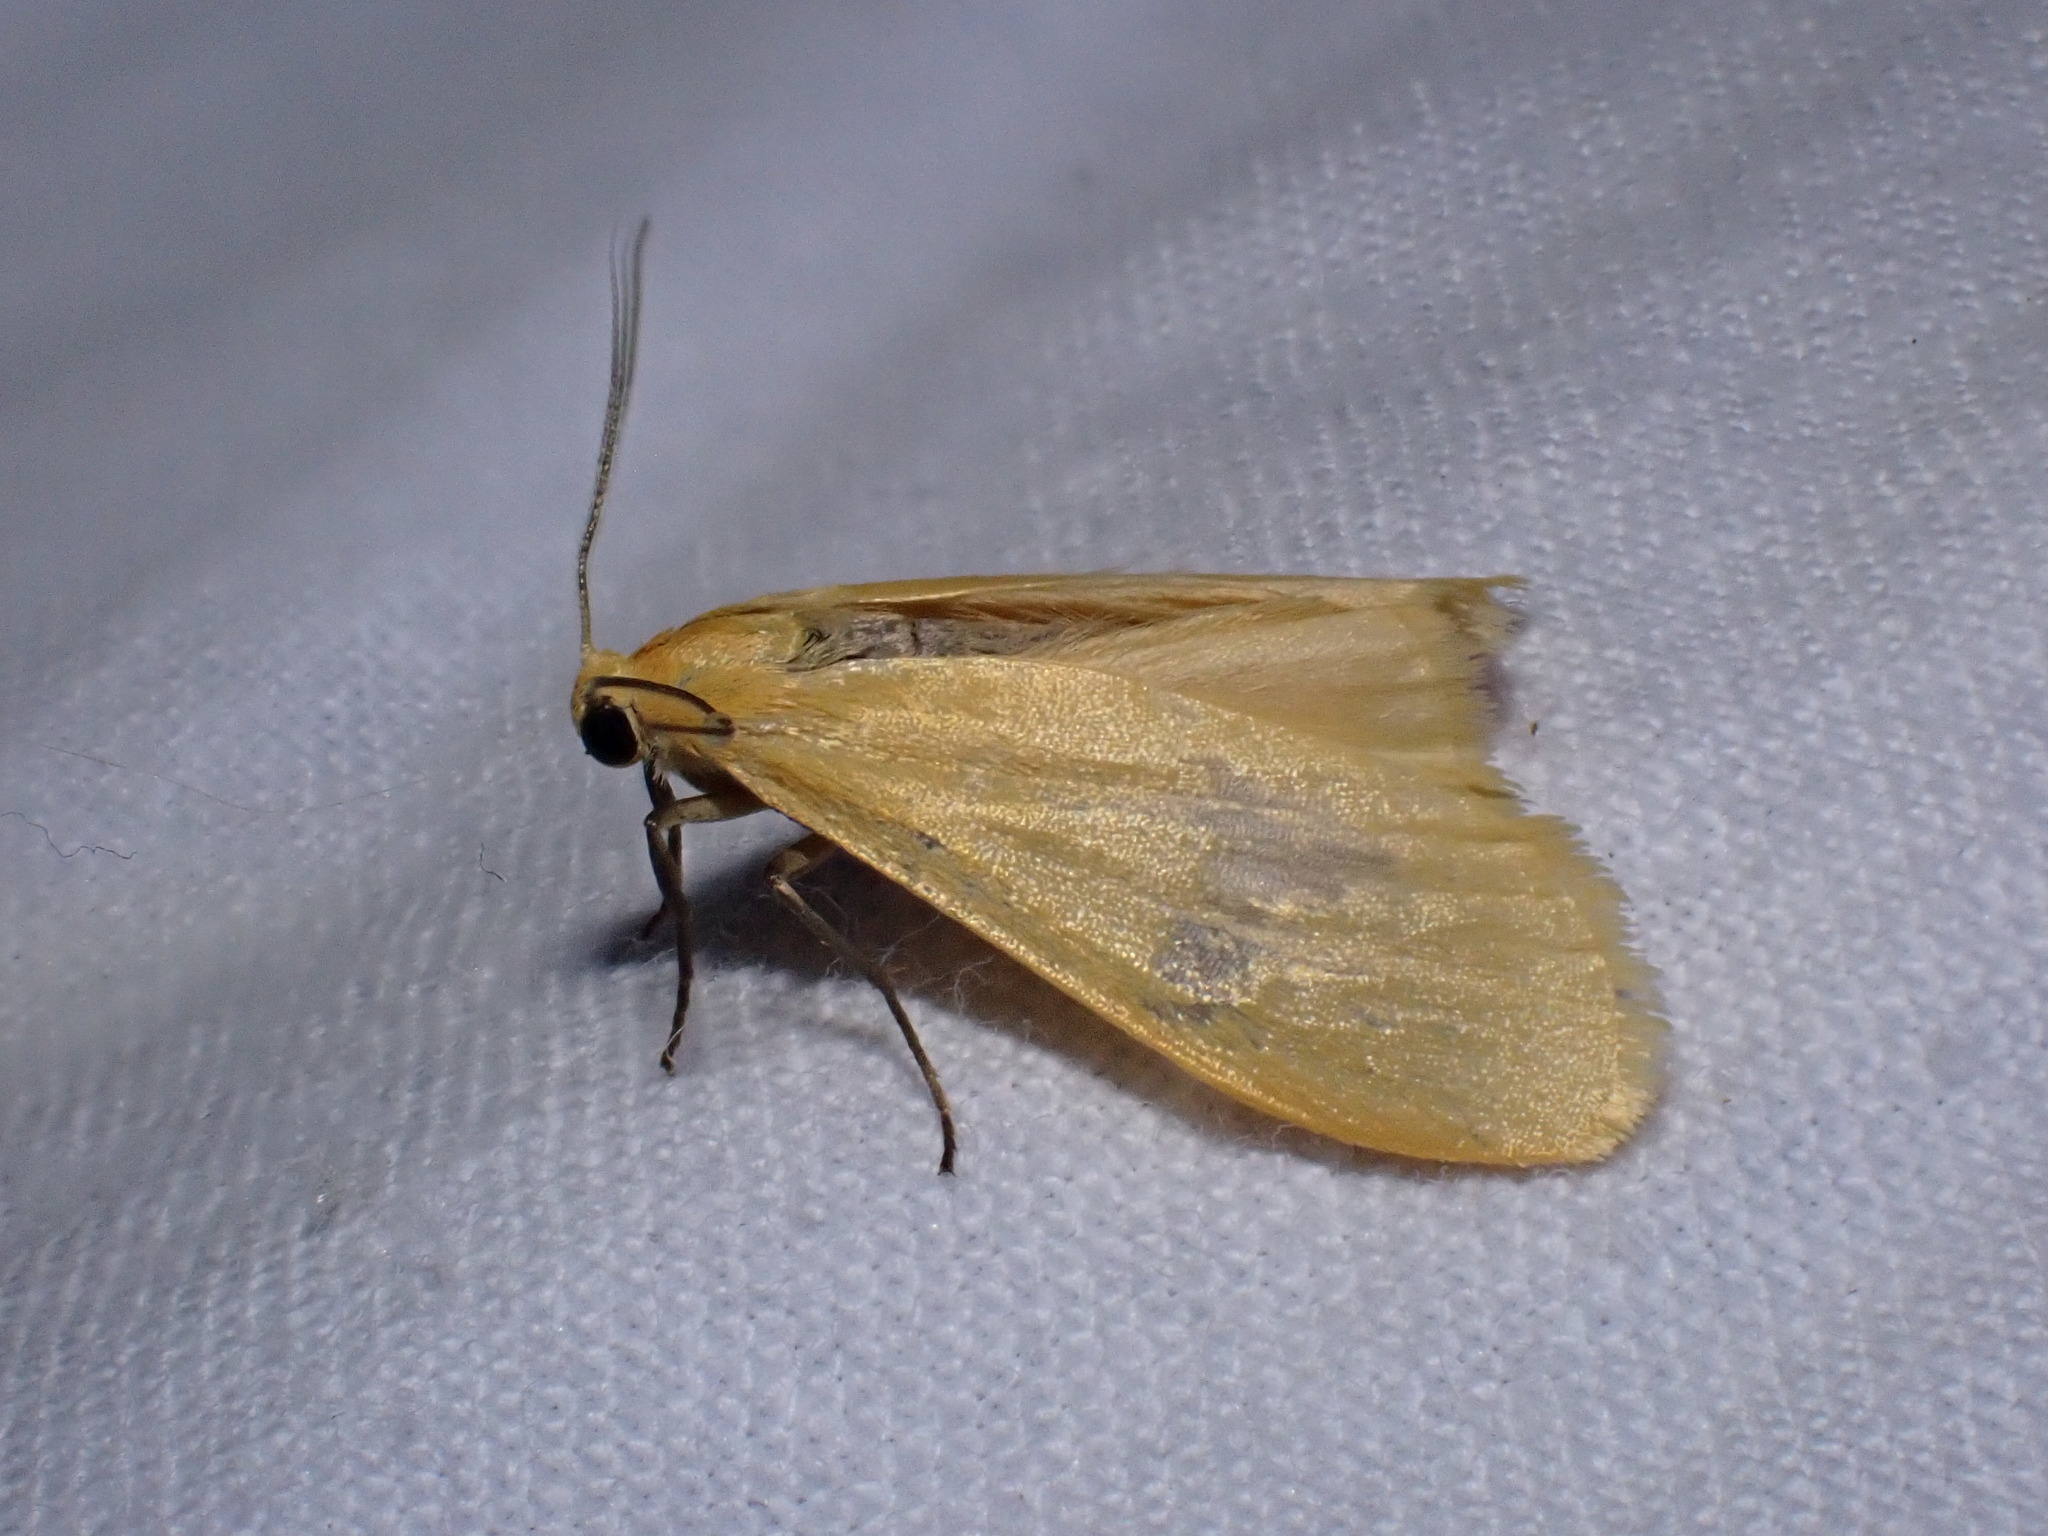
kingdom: Animalia
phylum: Arthropoda
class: Insecta
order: Lepidoptera
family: Erebidae
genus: Wittia
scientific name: Wittia sororcula
